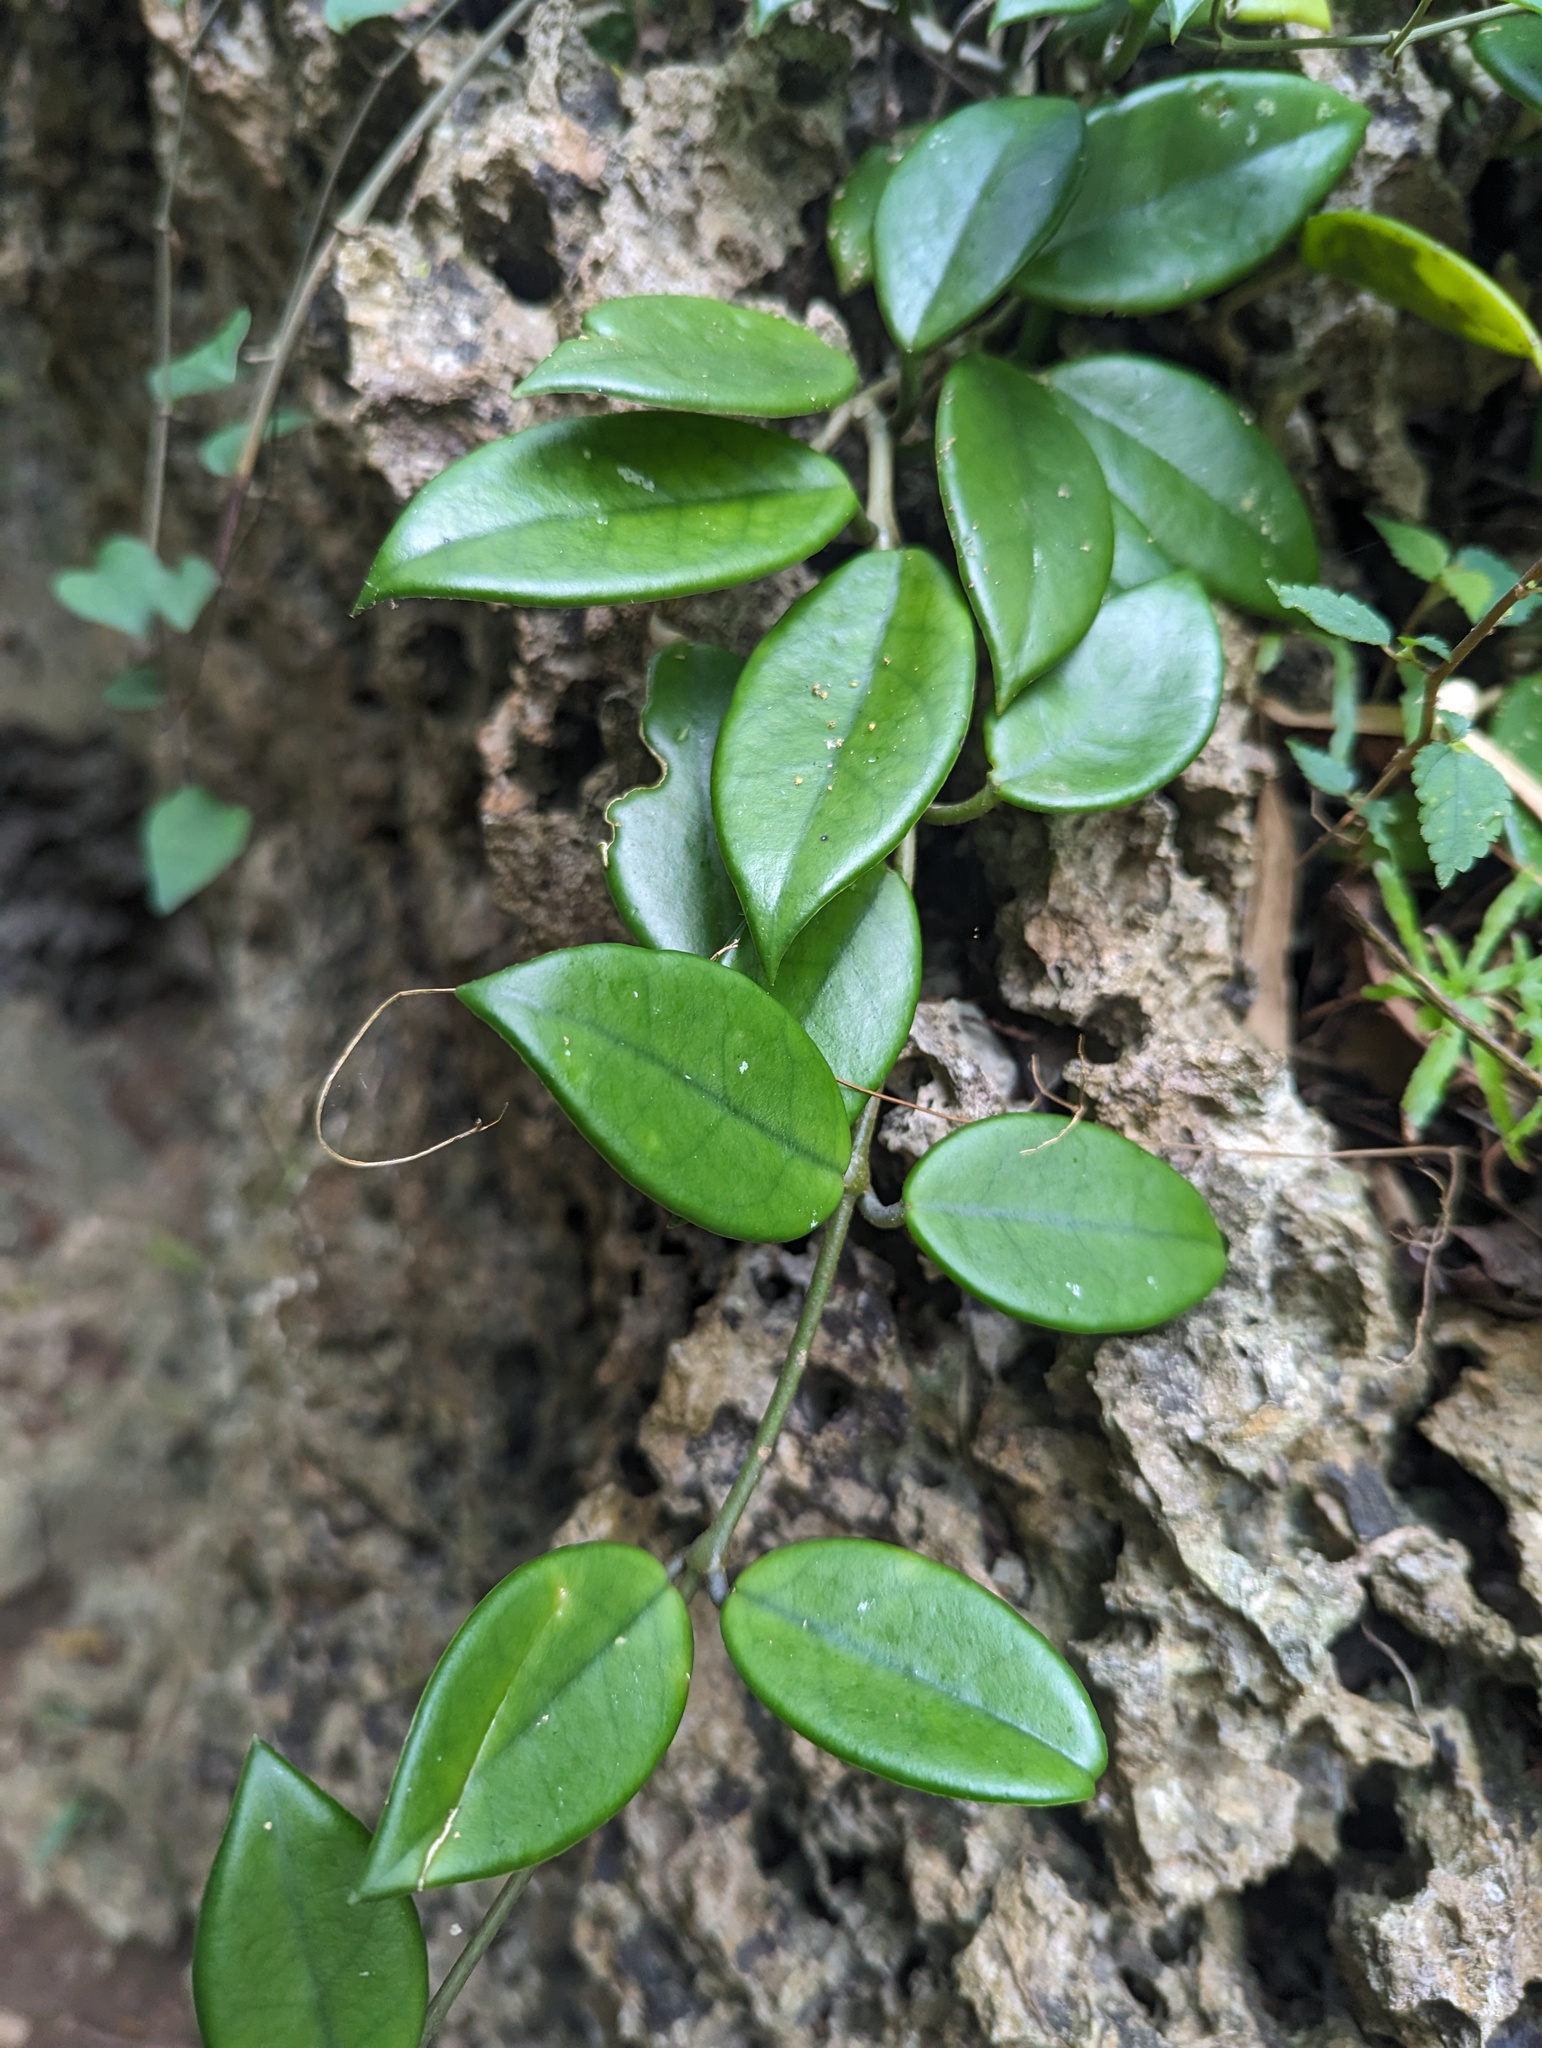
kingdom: Plantae
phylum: Tracheophyta
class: Magnoliopsida
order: Gentianales
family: Apocynaceae
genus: Hoya
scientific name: Hoya carnosa
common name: Honeyplant
